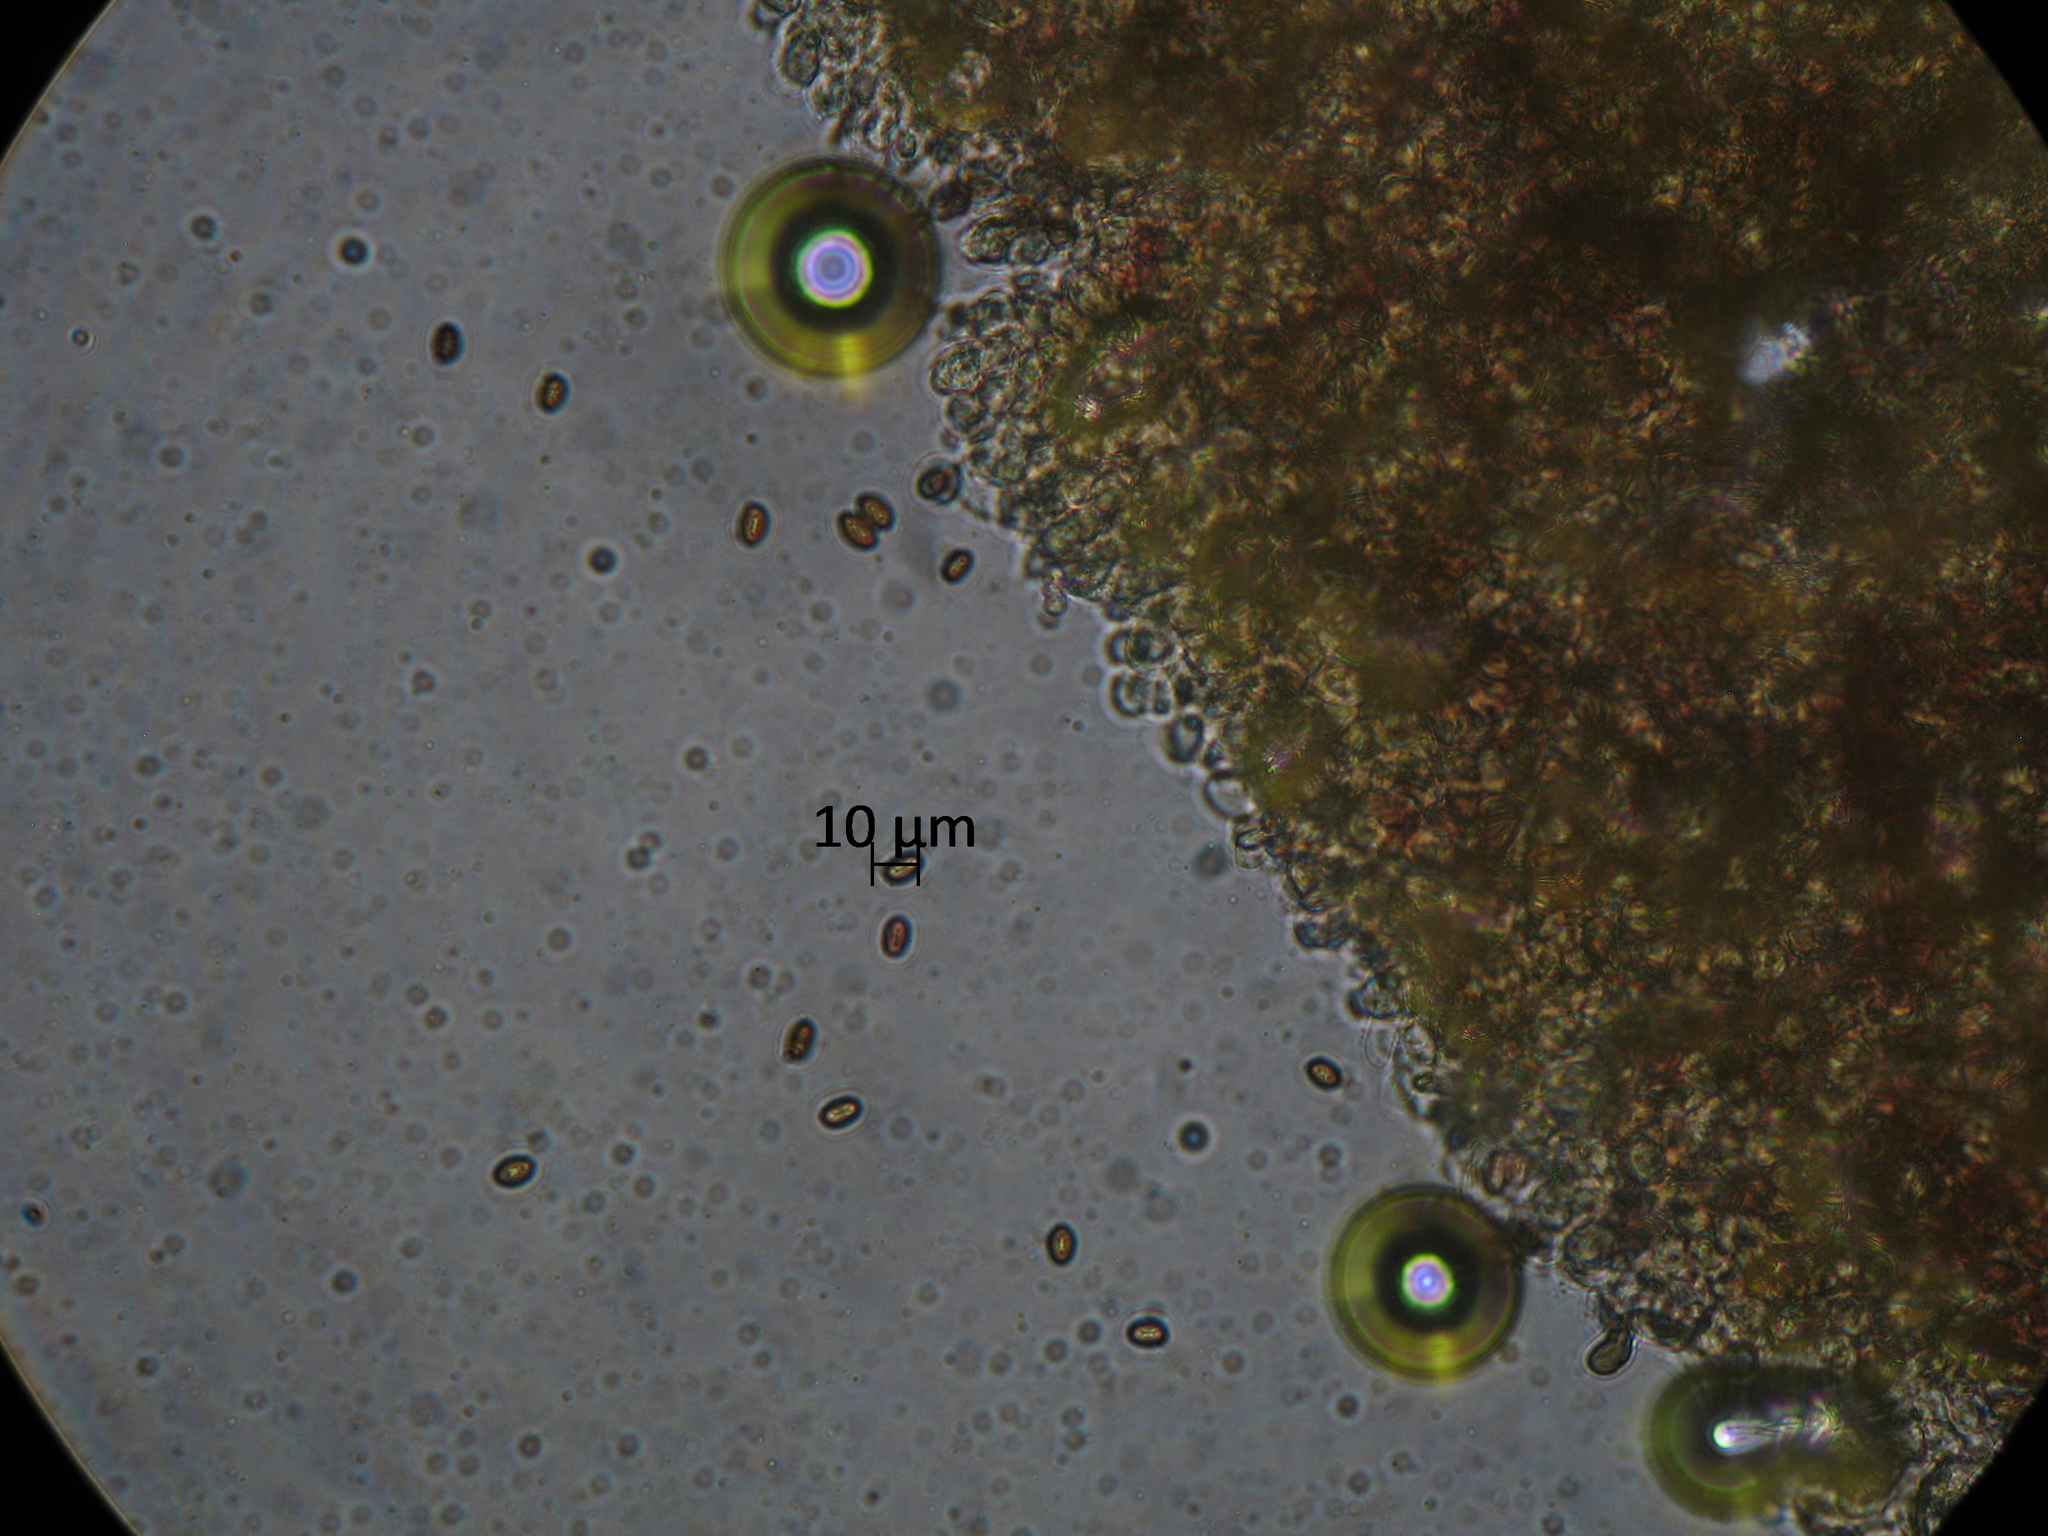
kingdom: Fungi
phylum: Basidiomycota
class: Agaricomycetes
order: Agaricales
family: Agaricaceae
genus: Agaricus
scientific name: Agaricus crocodilinus
